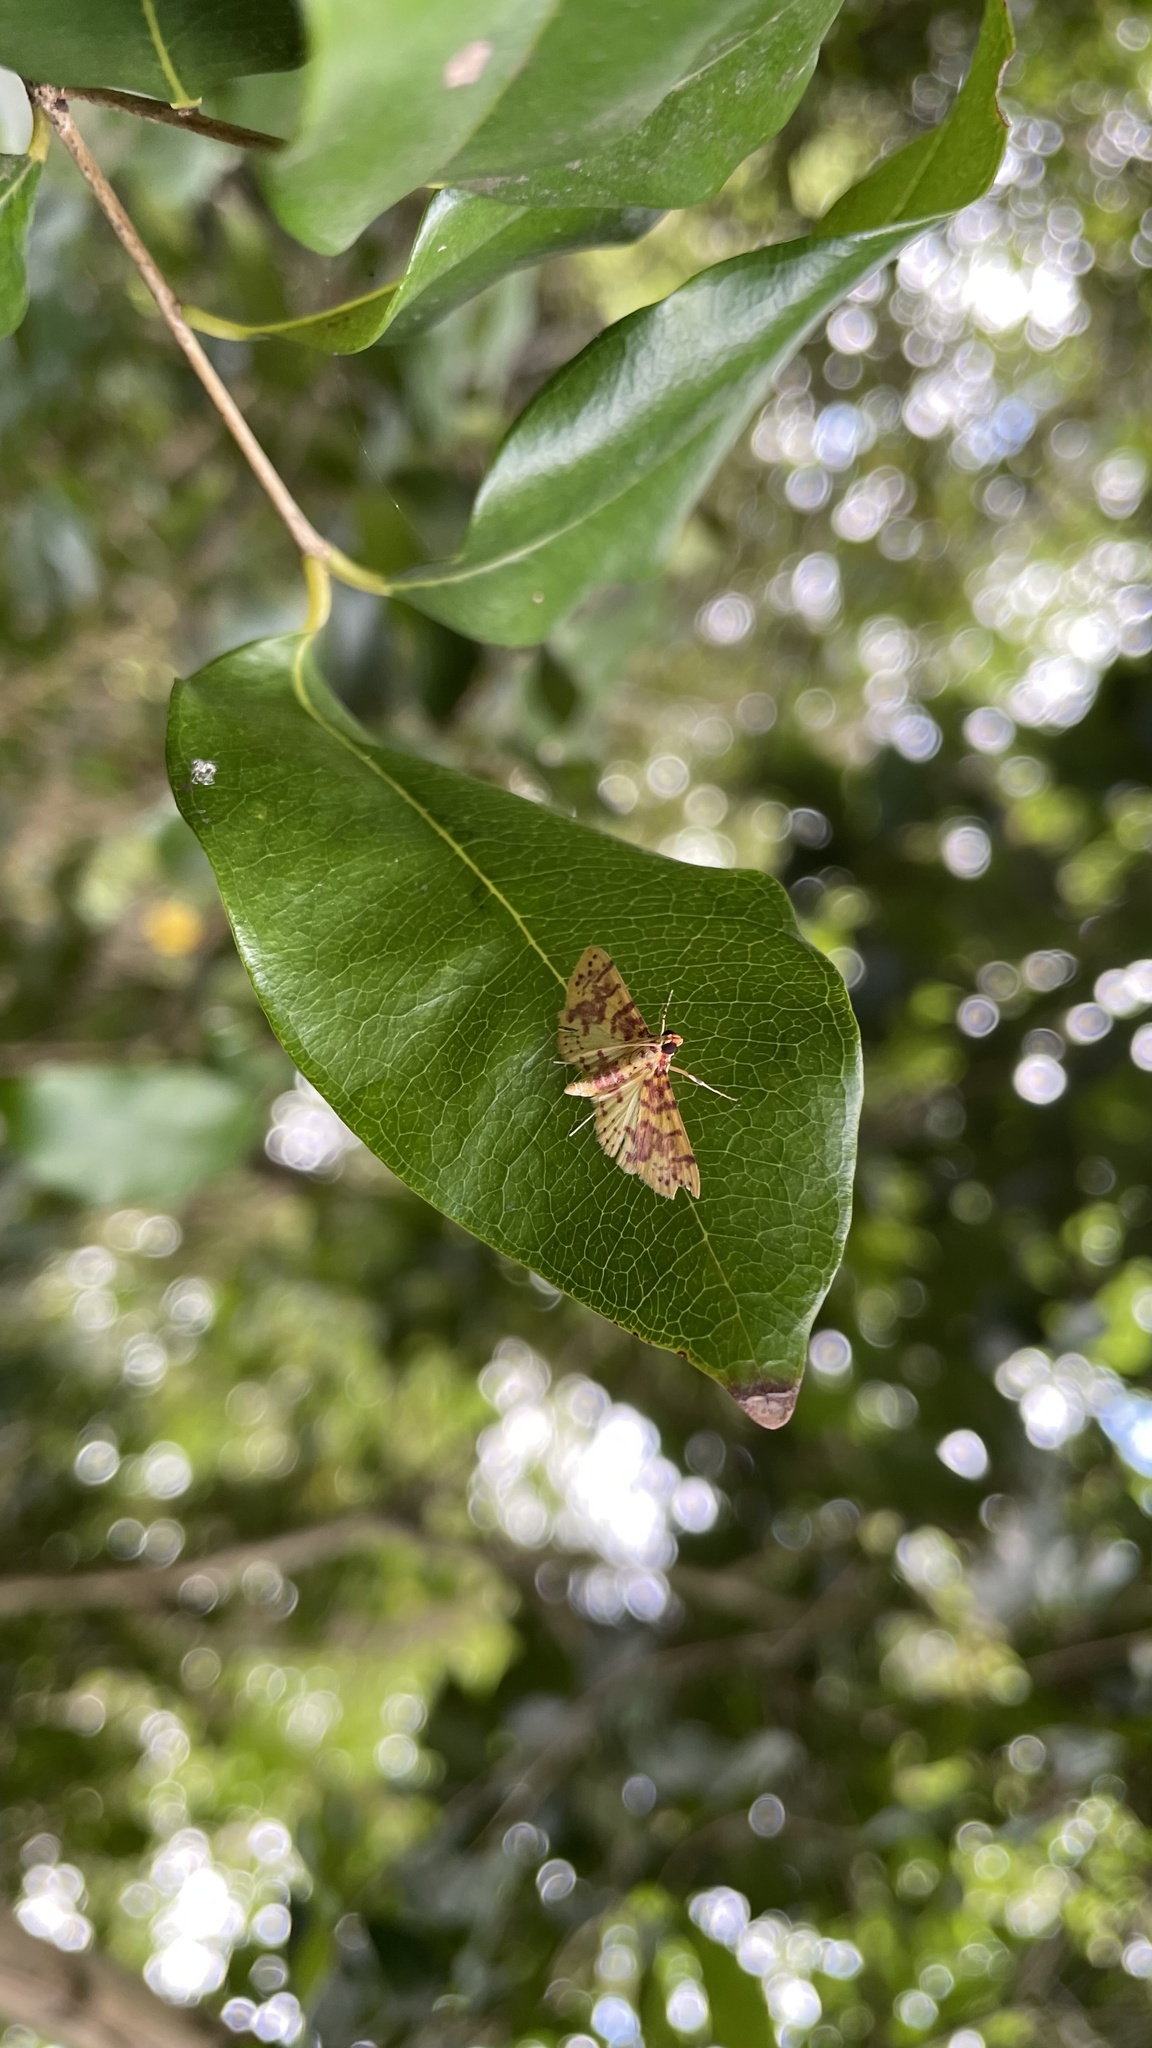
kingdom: Animalia
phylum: Arthropoda
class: Insecta
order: Lepidoptera
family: Crambidae
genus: Conogethes
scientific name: Conogethes haemactalis
